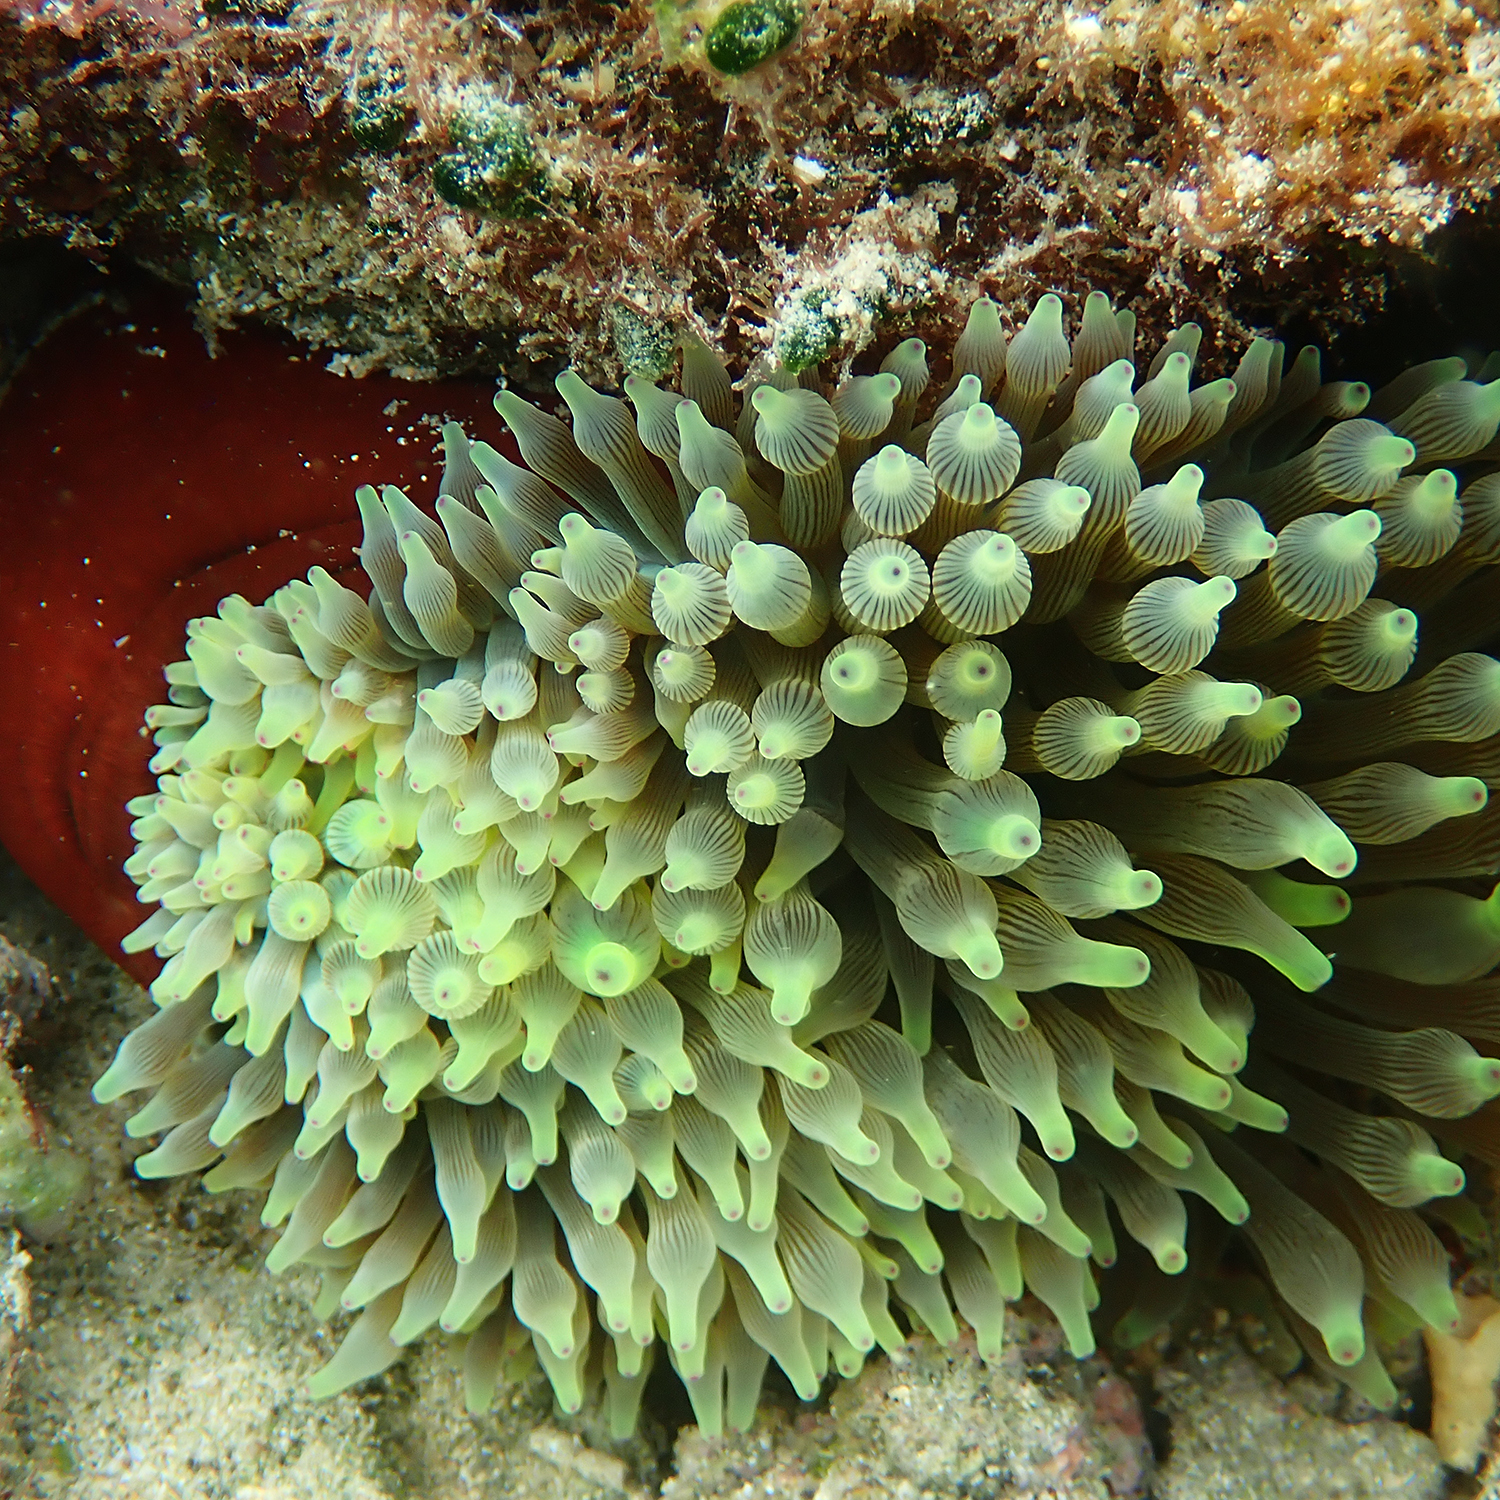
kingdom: Animalia
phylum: Cnidaria
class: Anthozoa
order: Actiniaria
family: Actiniidae
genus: Entacmaea
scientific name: Entacmaea quadricolor
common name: Bulb tentacle sea anemone
